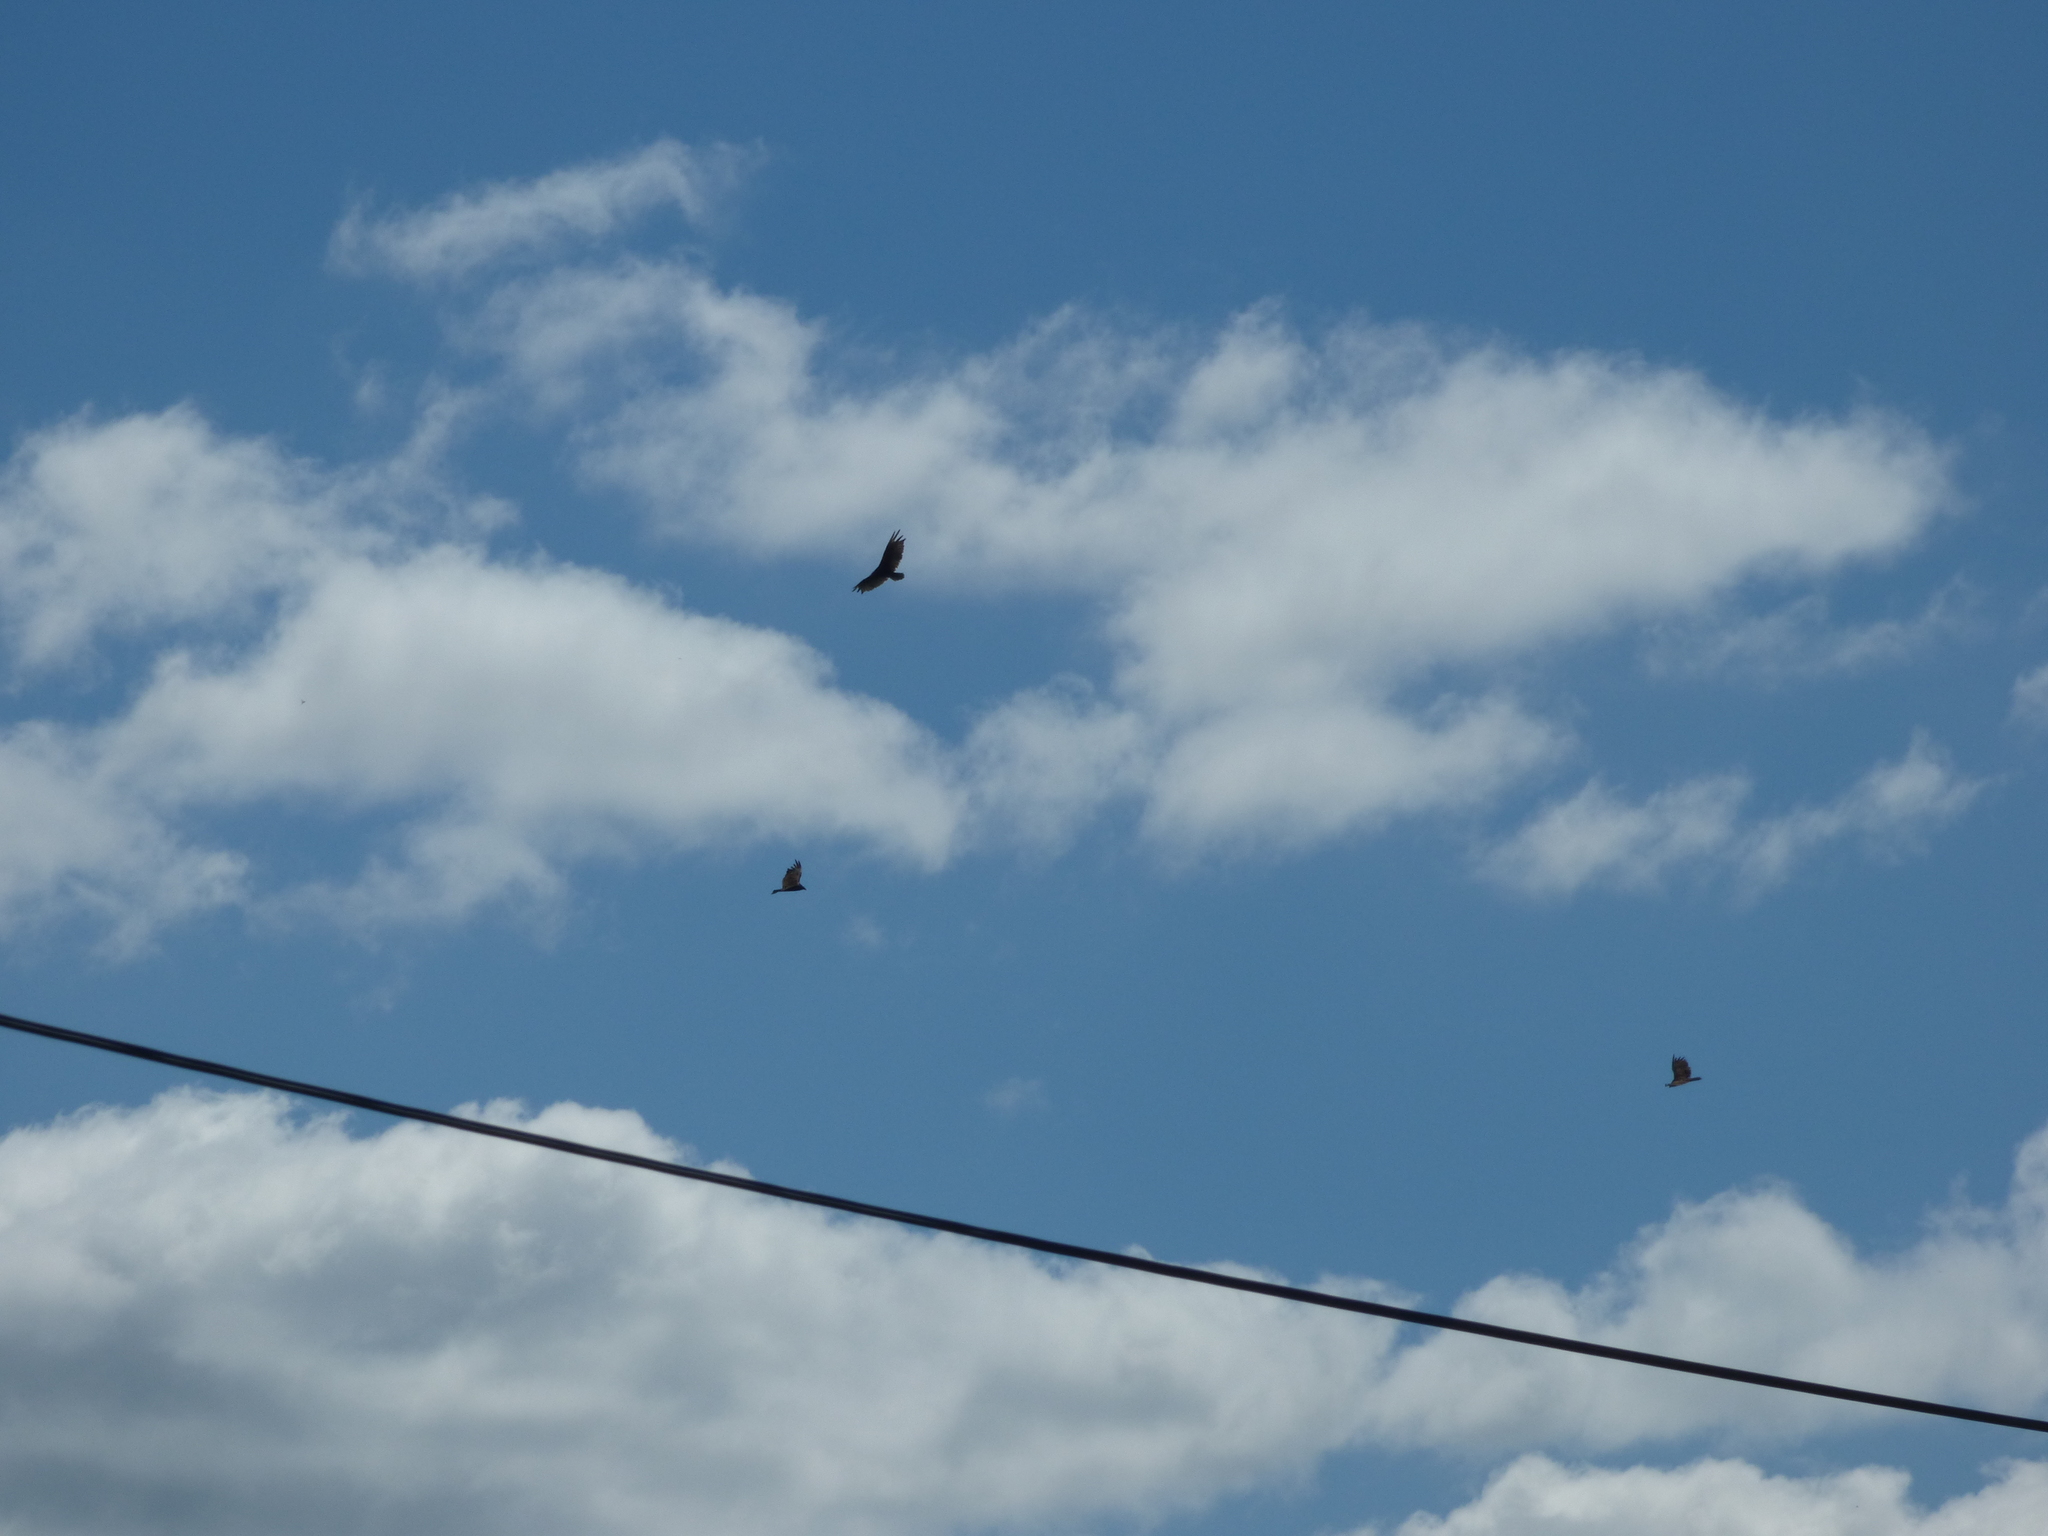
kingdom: Animalia
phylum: Chordata
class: Aves
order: Accipitriformes
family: Cathartidae
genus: Cathartes
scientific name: Cathartes aura
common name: Turkey vulture
